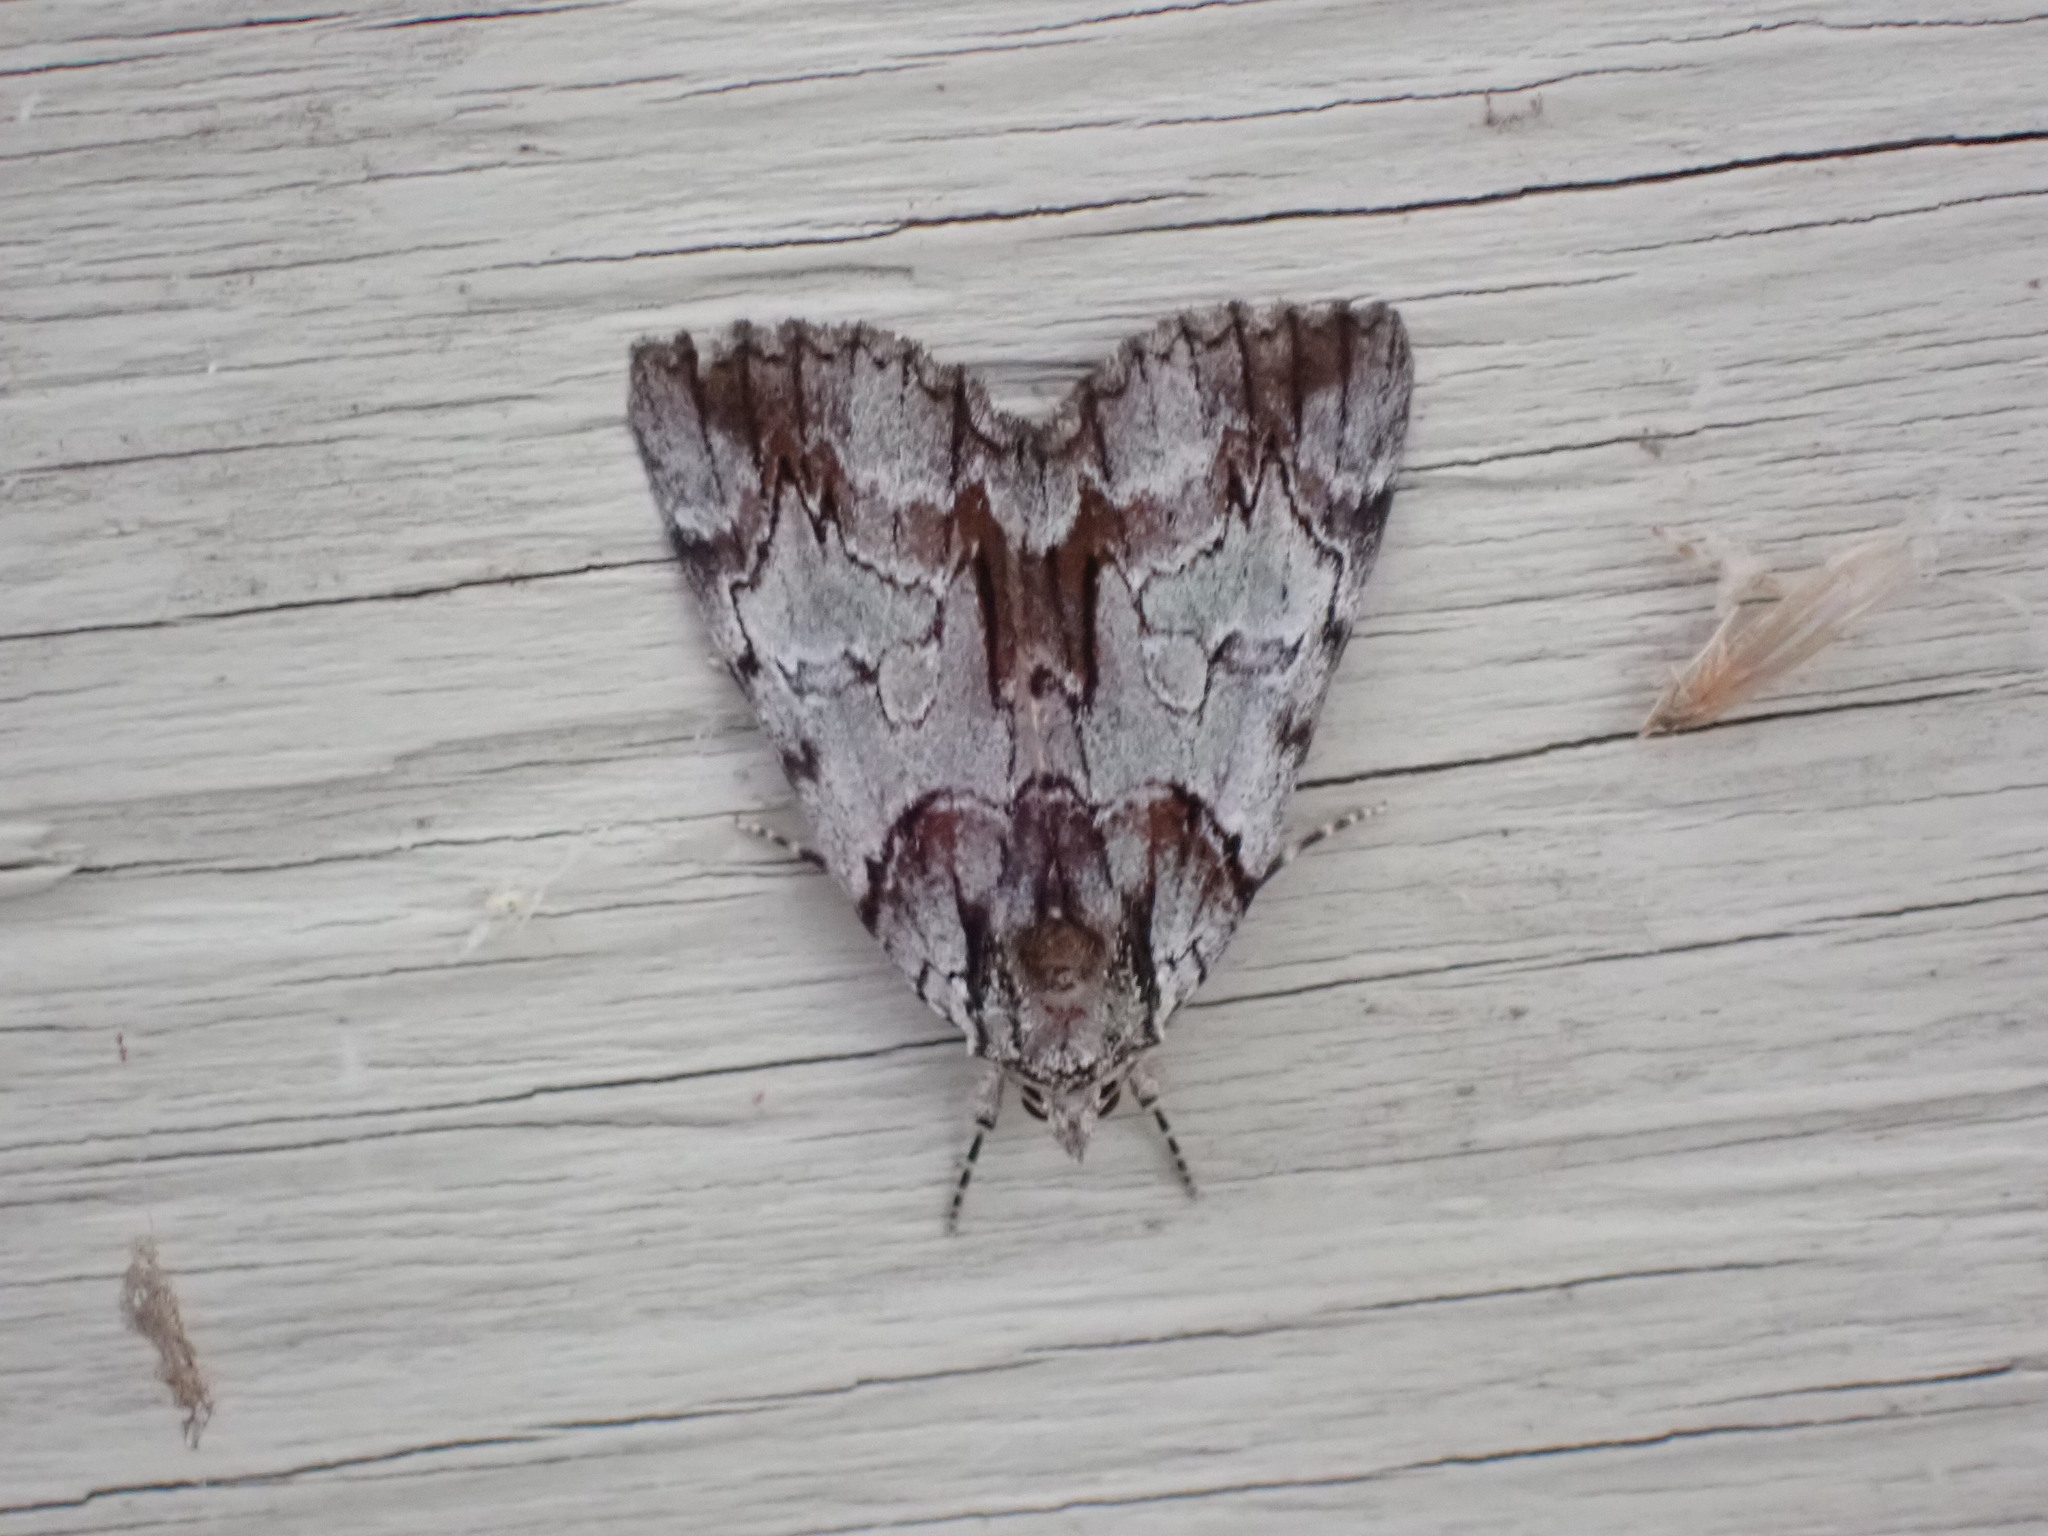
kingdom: Animalia
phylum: Arthropoda
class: Insecta
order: Lepidoptera
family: Erebidae
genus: Catocala
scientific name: Catocala praeclara
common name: Praeclara underwing
